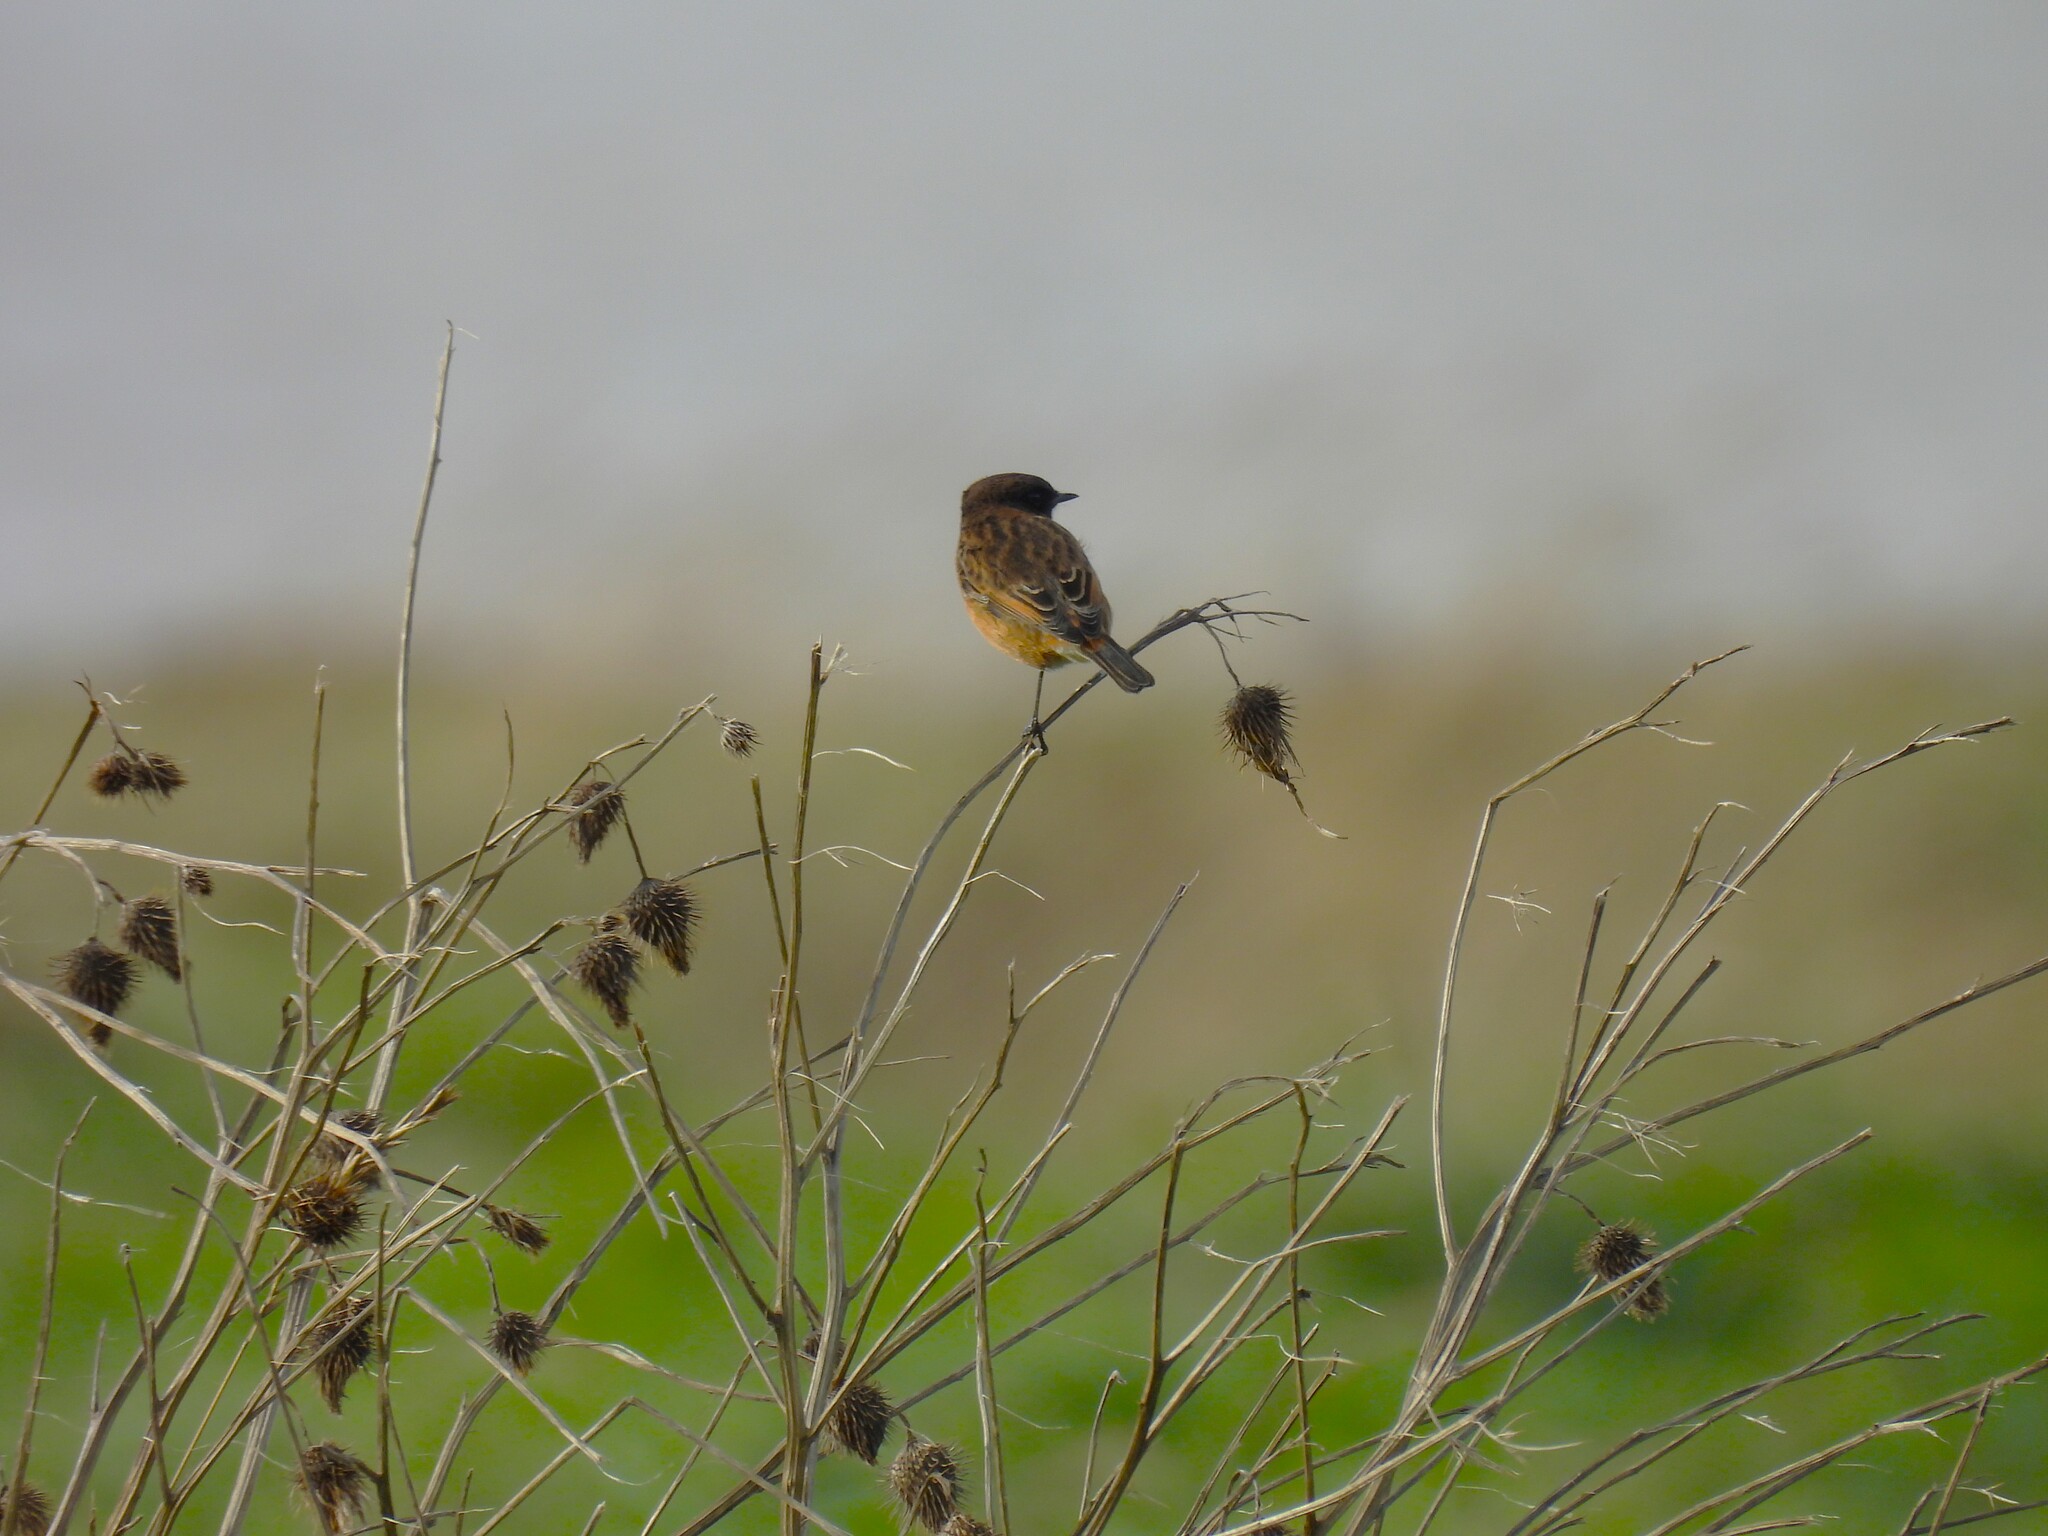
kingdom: Animalia
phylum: Chordata
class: Aves
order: Passeriformes
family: Muscicapidae
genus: Saxicola
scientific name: Saxicola rubicola
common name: European stonechat
